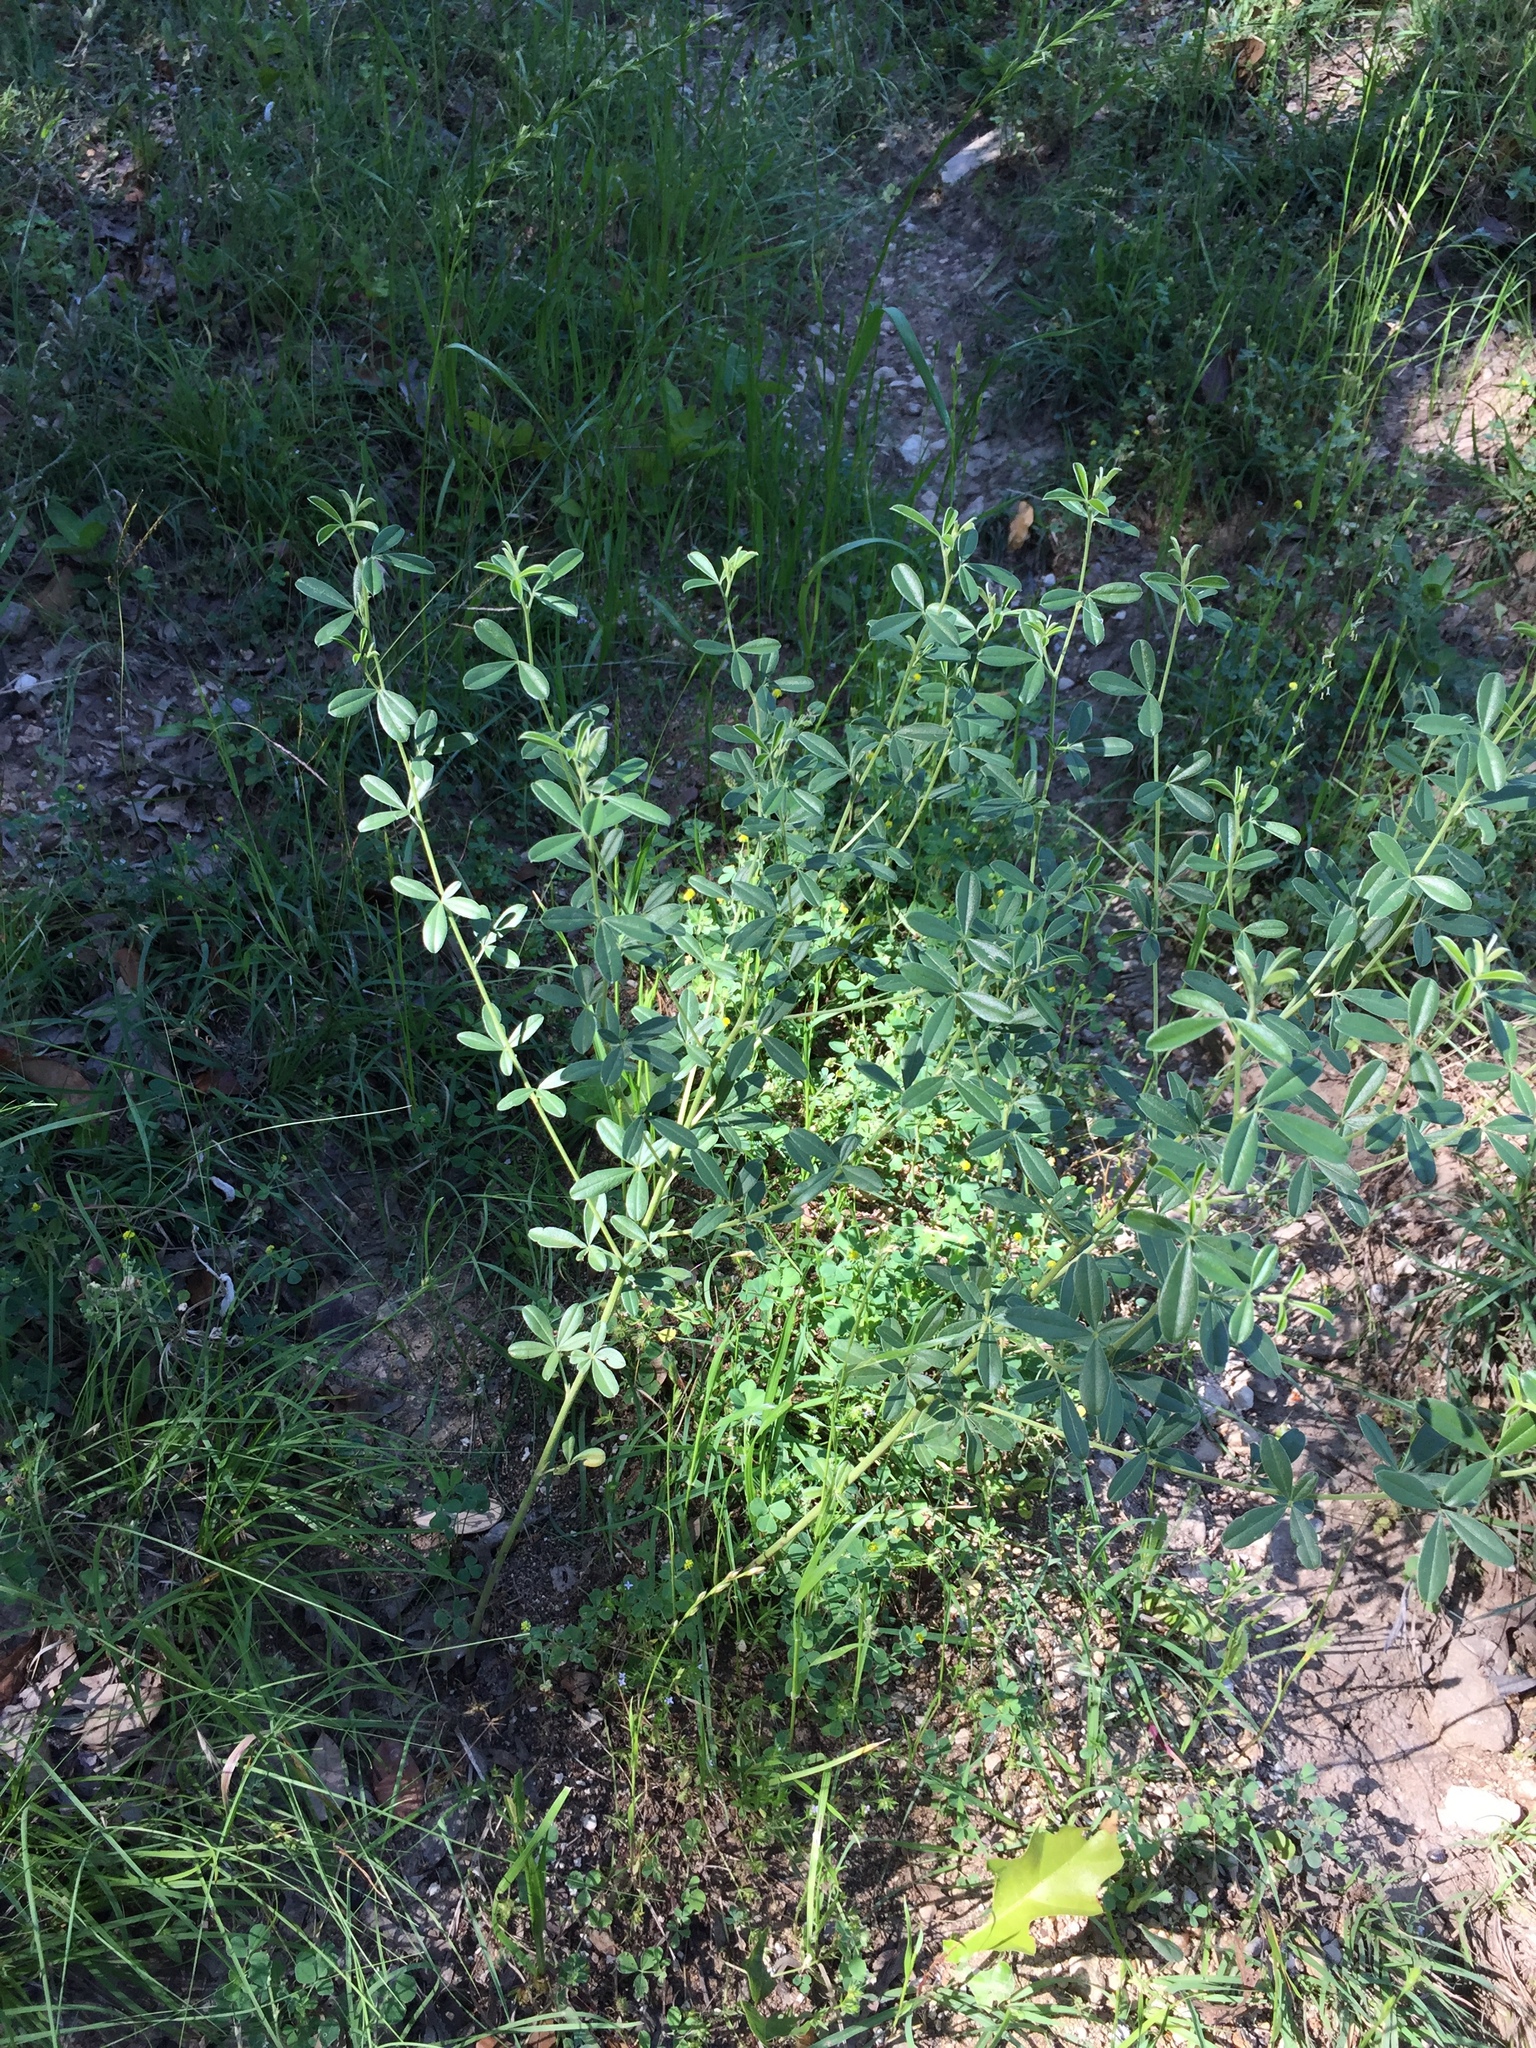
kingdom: Plantae
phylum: Tracheophyta
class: Magnoliopsida
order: Fabales
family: Fabaceae
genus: Pediomelum
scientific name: Pediomelum tenuiflorum
